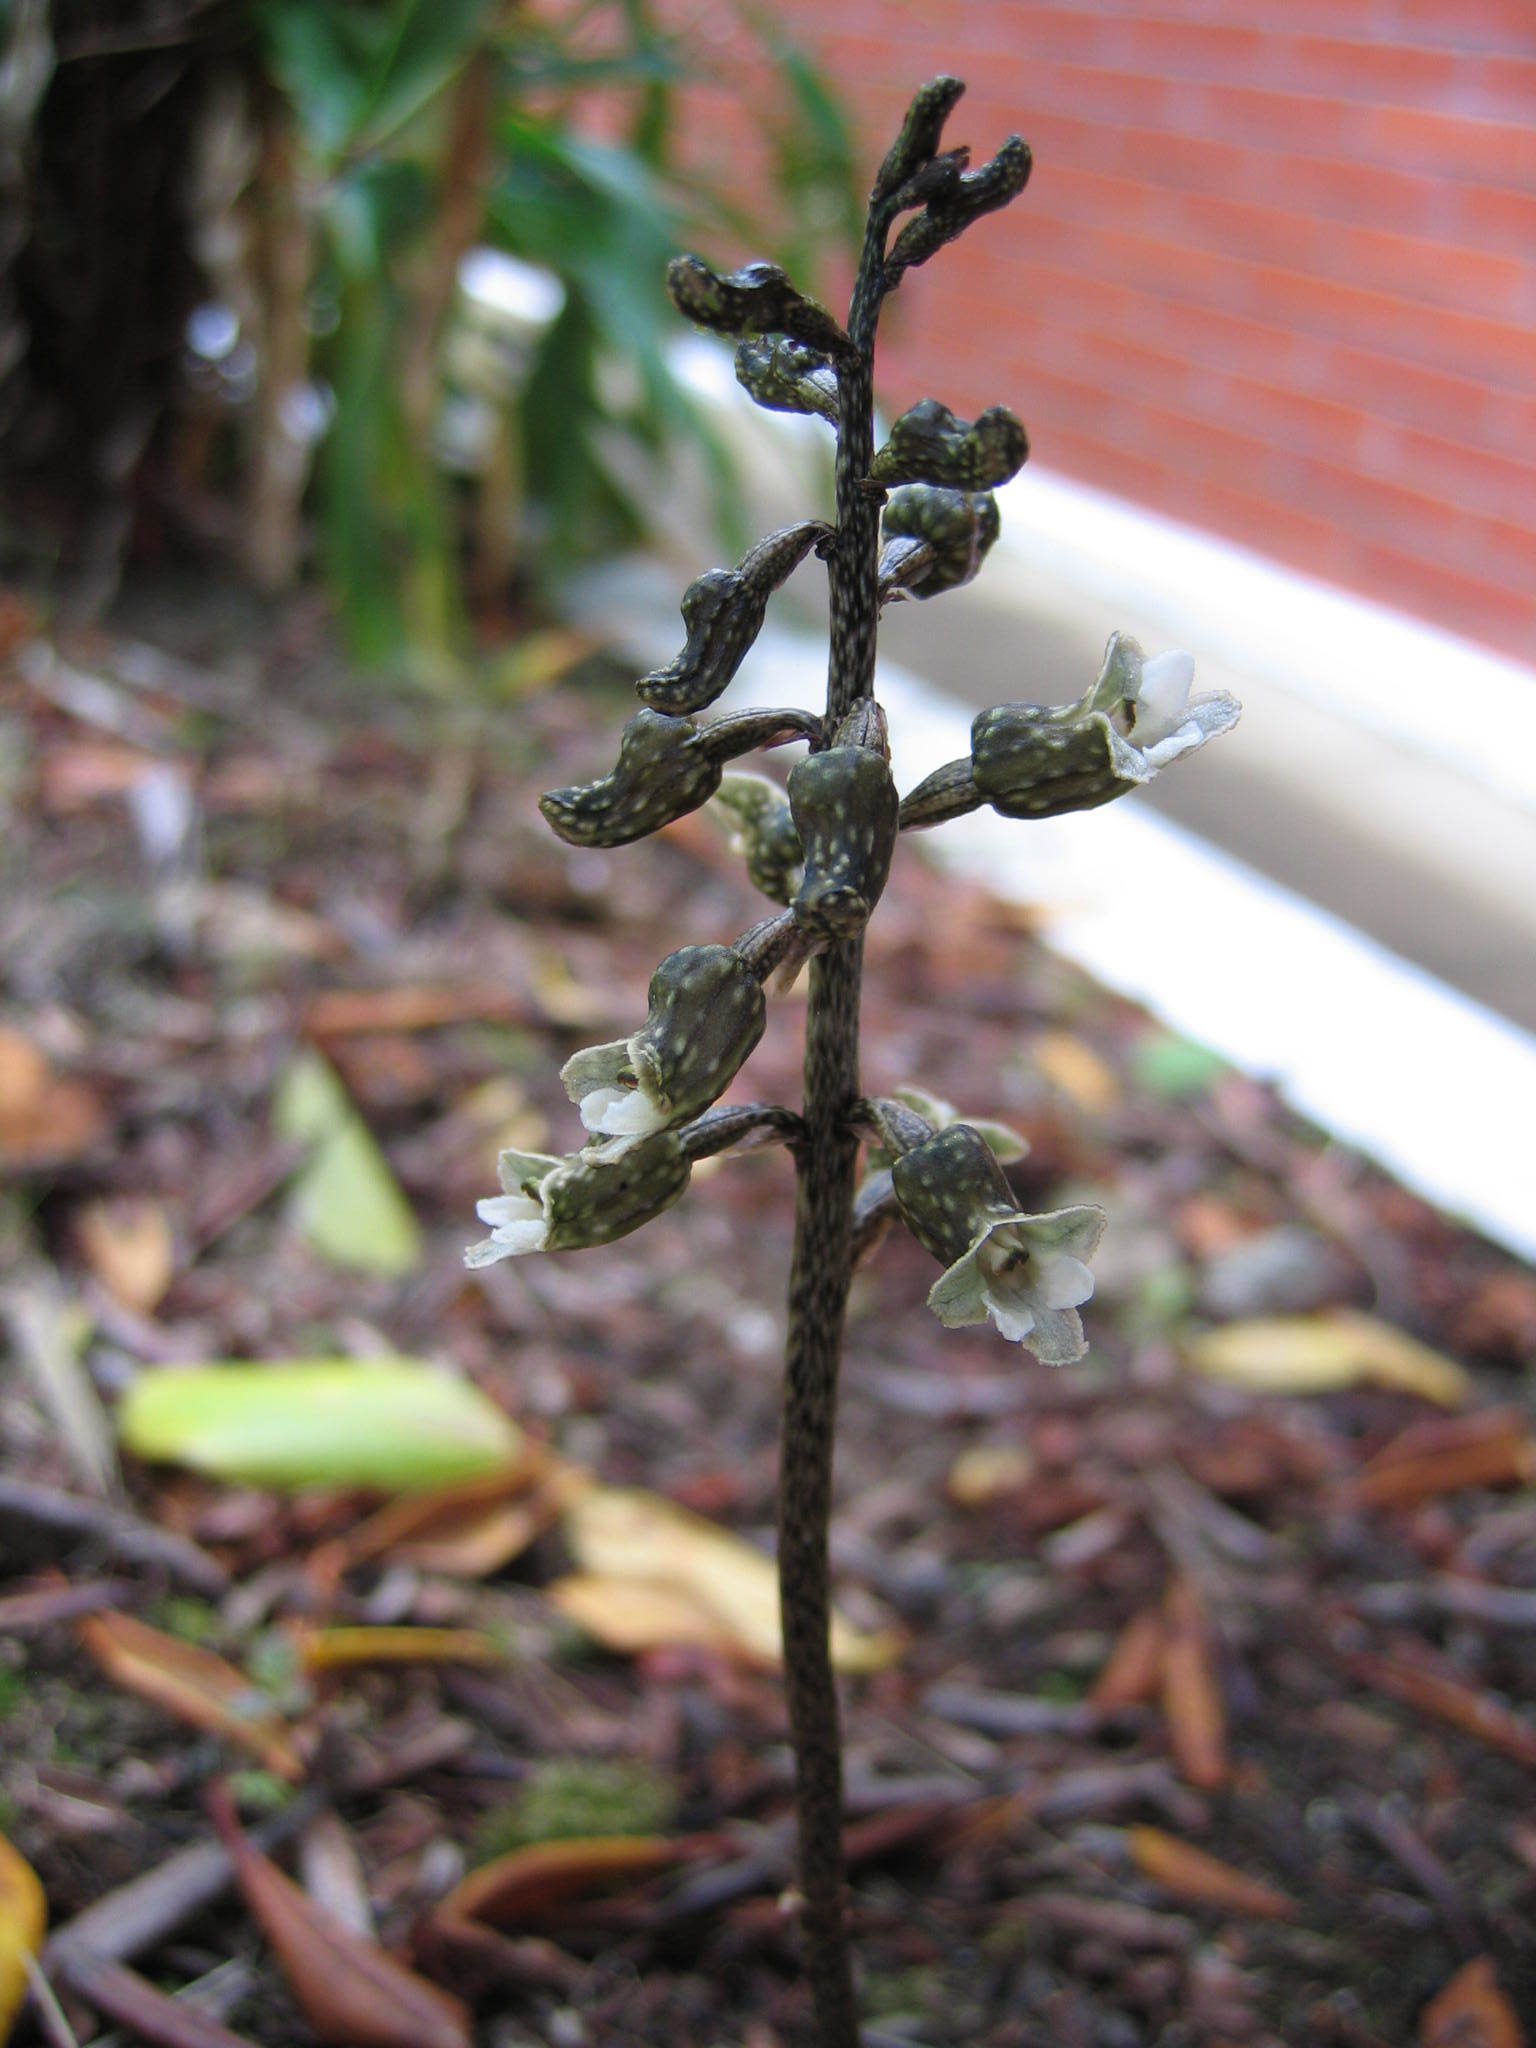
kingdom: Plantae
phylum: Tracheophyta
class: Liliopsida
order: Asparagales
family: Orchidaceae
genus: Gastrodia
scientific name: Gastrodia cunninghamii
